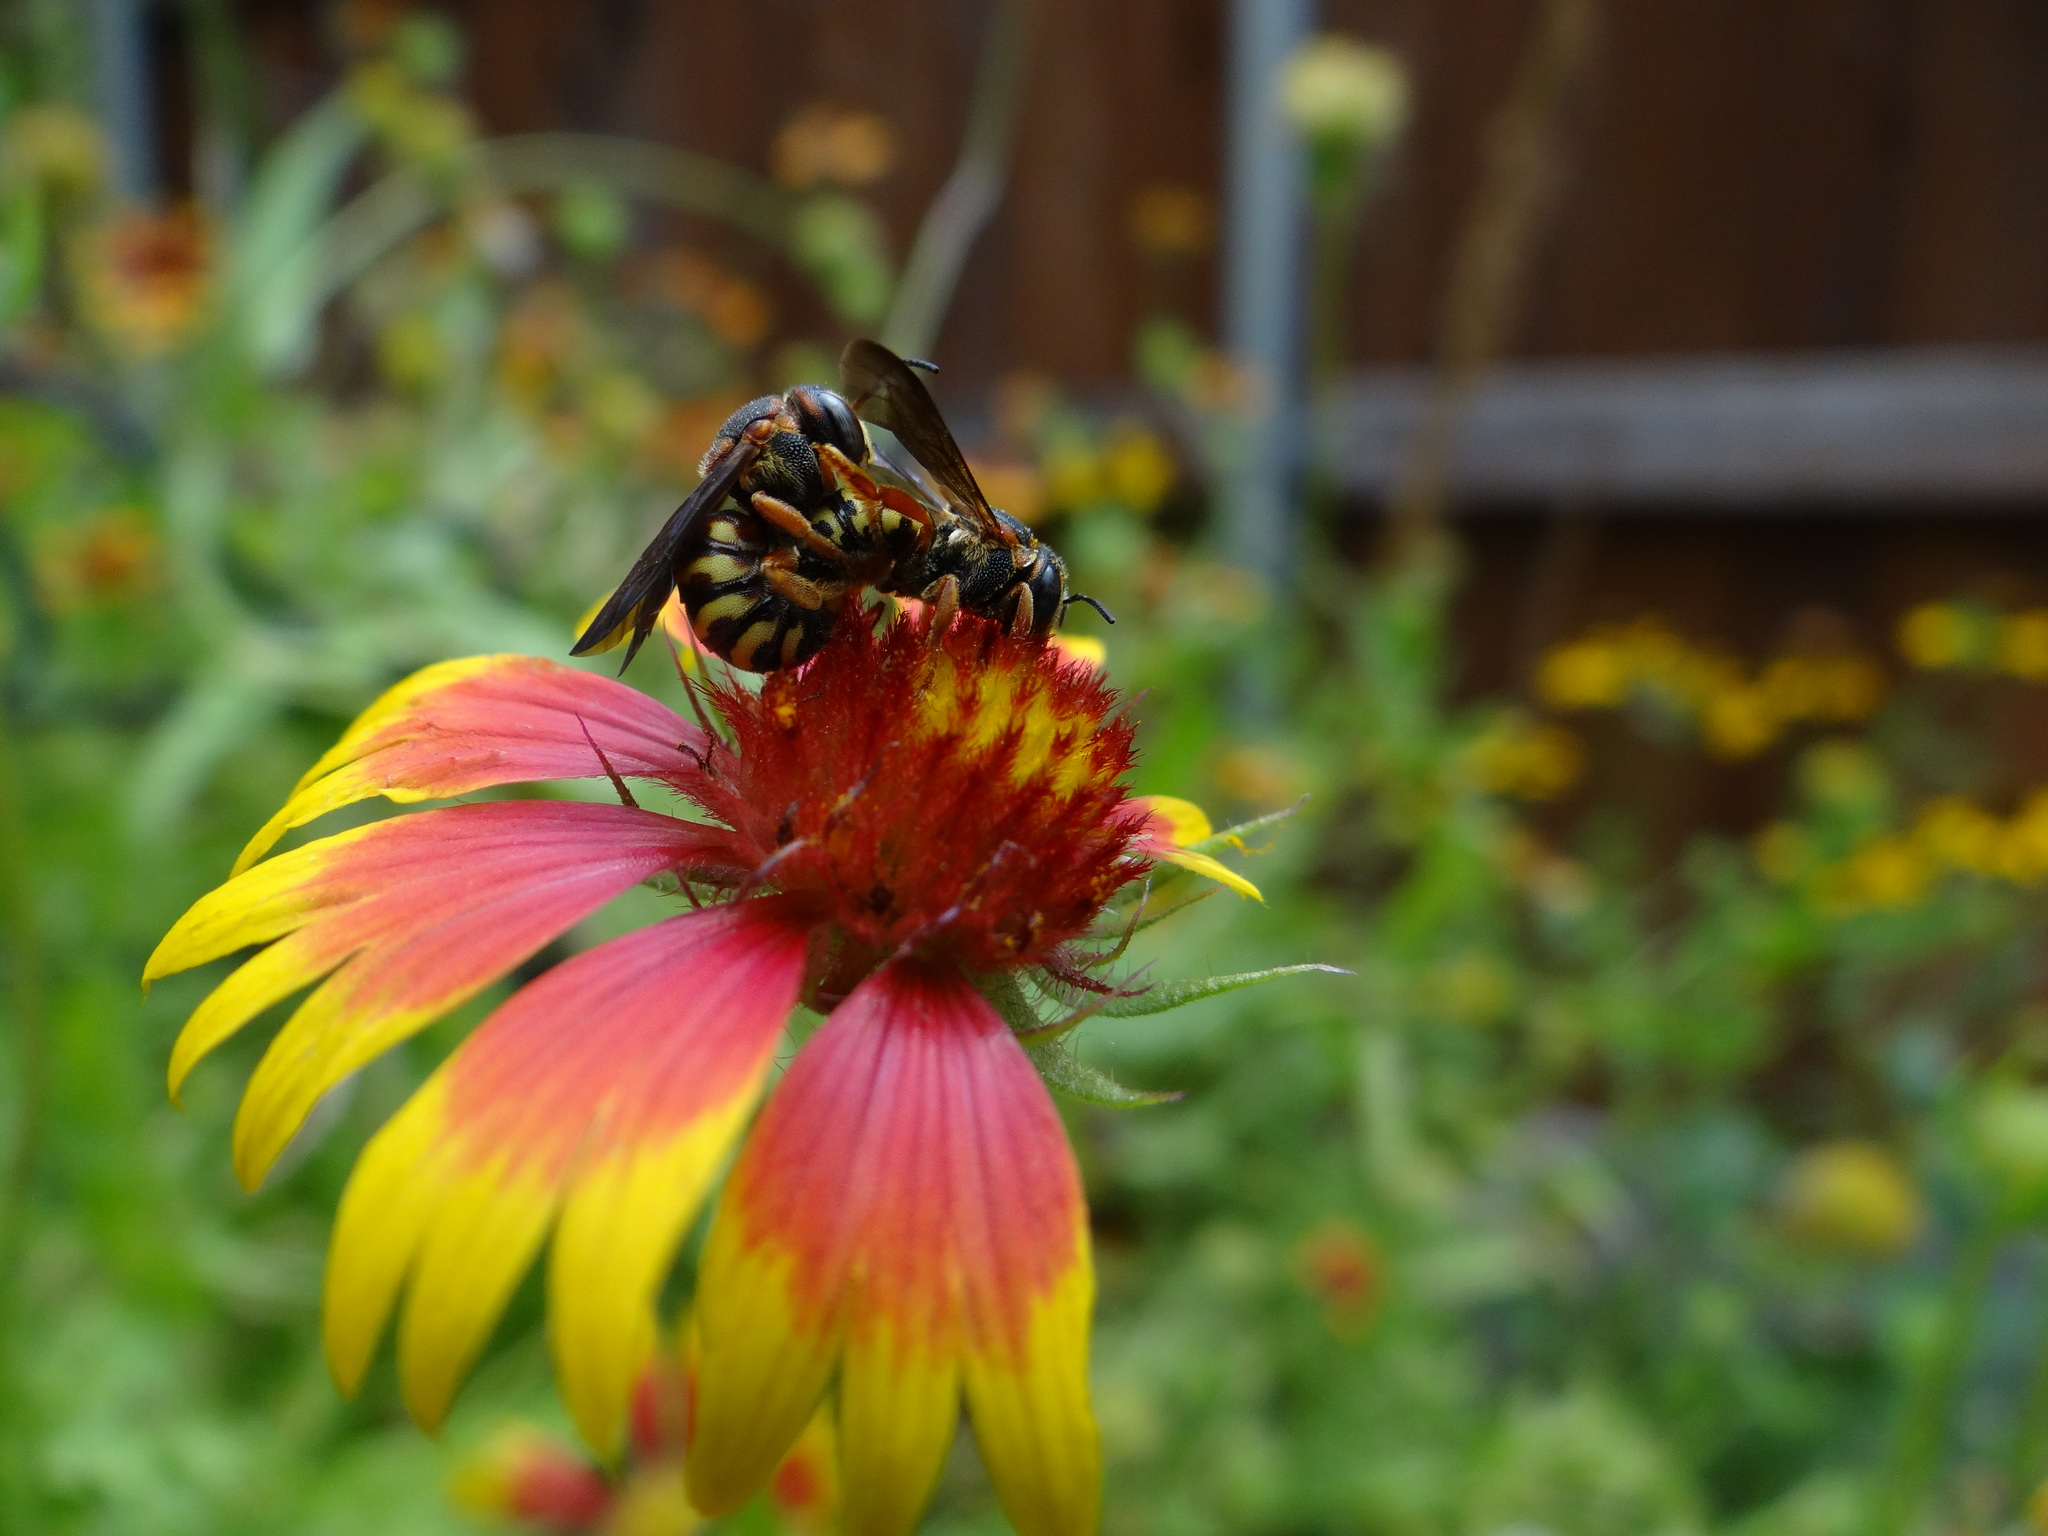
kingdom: Animalia
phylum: Arthropoda
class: Insecta
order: Hymenoptera
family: Megachilidae
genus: Dianthidium
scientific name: Dianthidium curvatum
